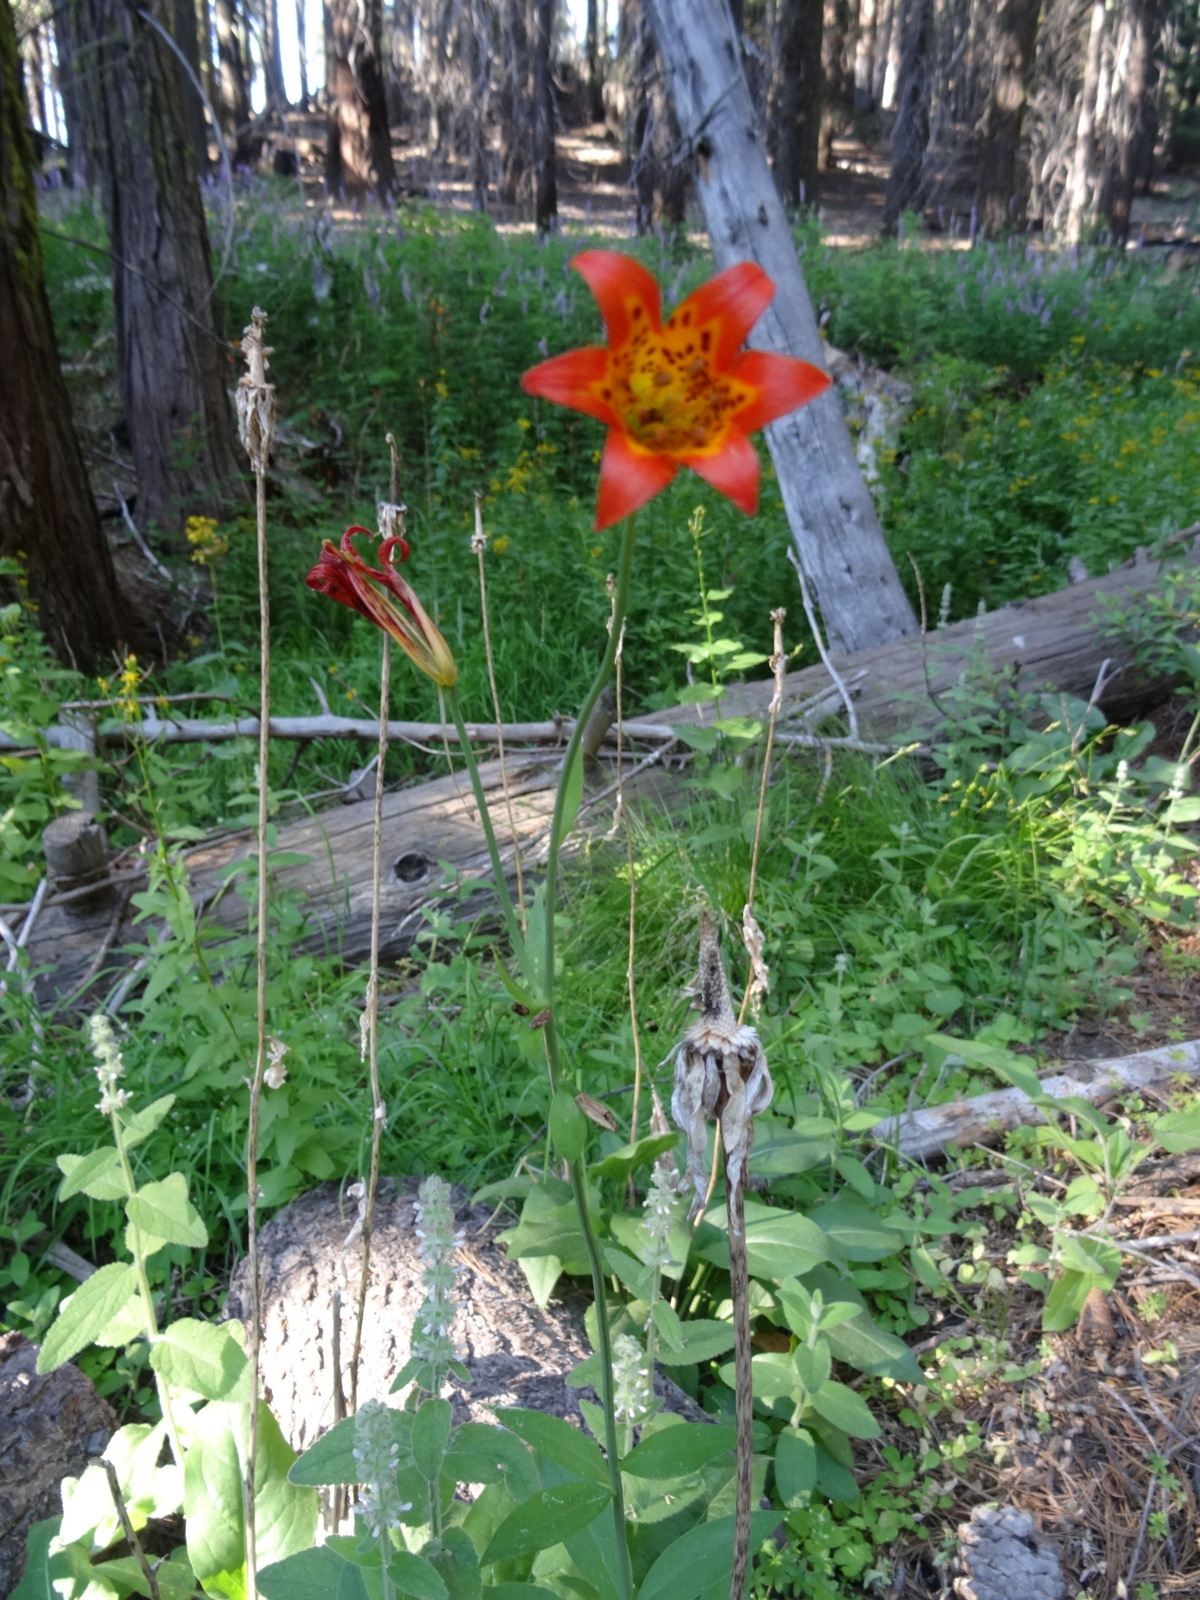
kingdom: Plantae
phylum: Tracheophyta
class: Liliopsida
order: Liliales
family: Liliaceae
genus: Lilium
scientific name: Lilium parvum
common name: Alpine lily
